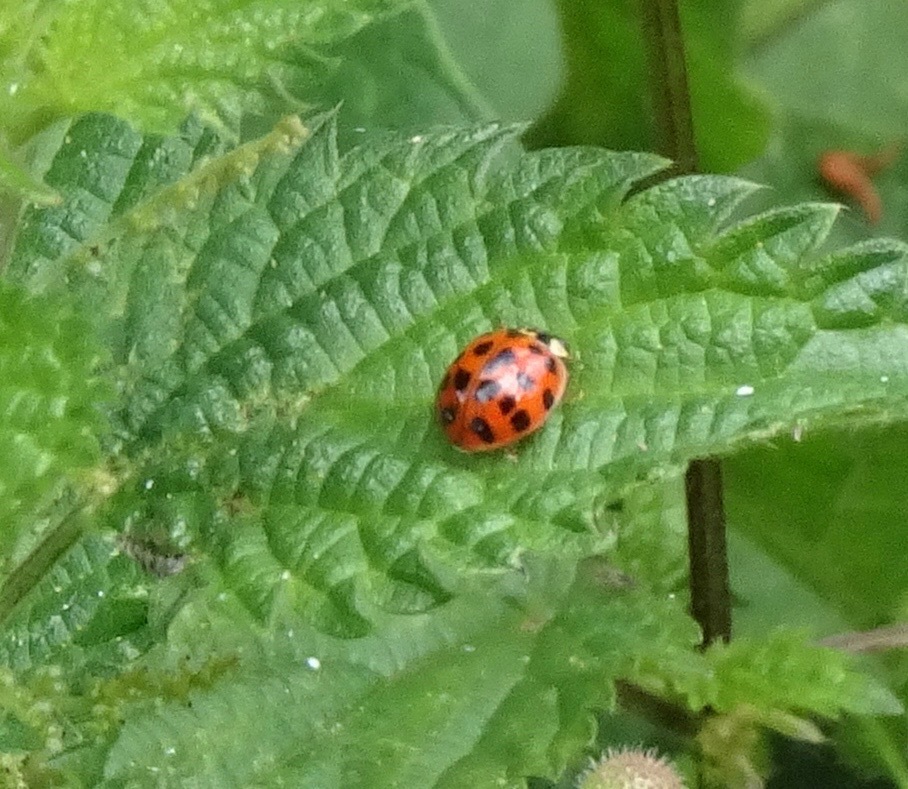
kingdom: Animalia
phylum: Arthropoda
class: Insecta
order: Coleoptera
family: Coccinellidae
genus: Harmonia
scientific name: Harmonia axyridis
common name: Harlequin ladybird
